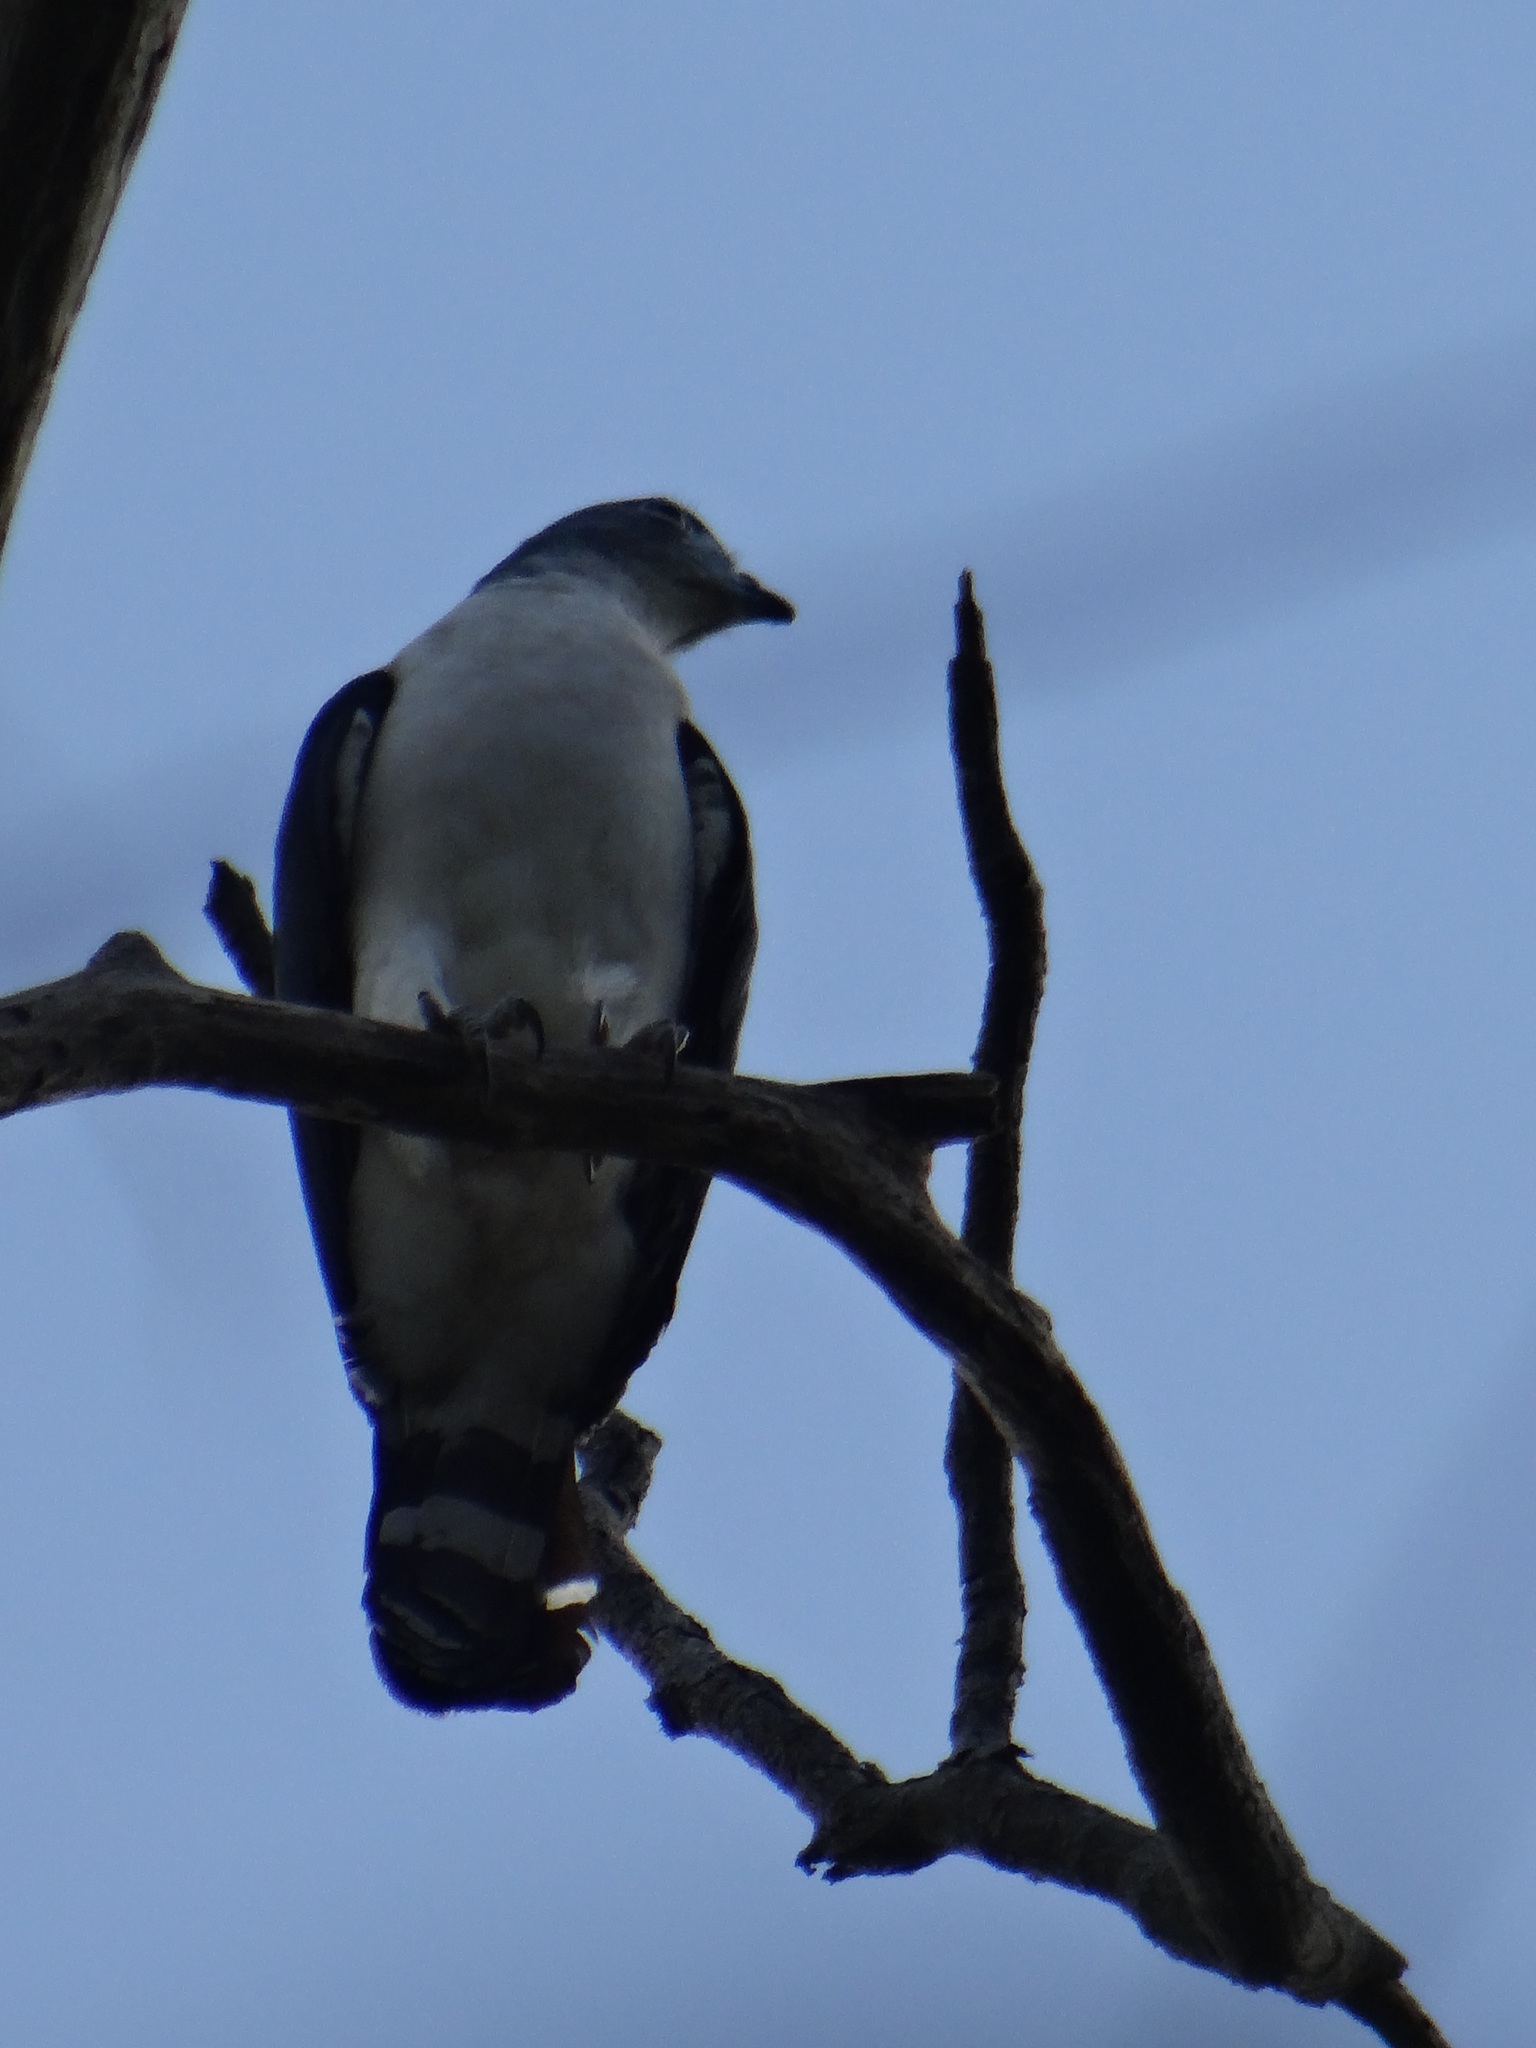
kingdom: Animalia
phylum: Chordata
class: Aves
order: Accipitriformes
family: Accipitridae
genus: Leptodon
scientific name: Leptodon cayanensis
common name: Gray-headed kite
